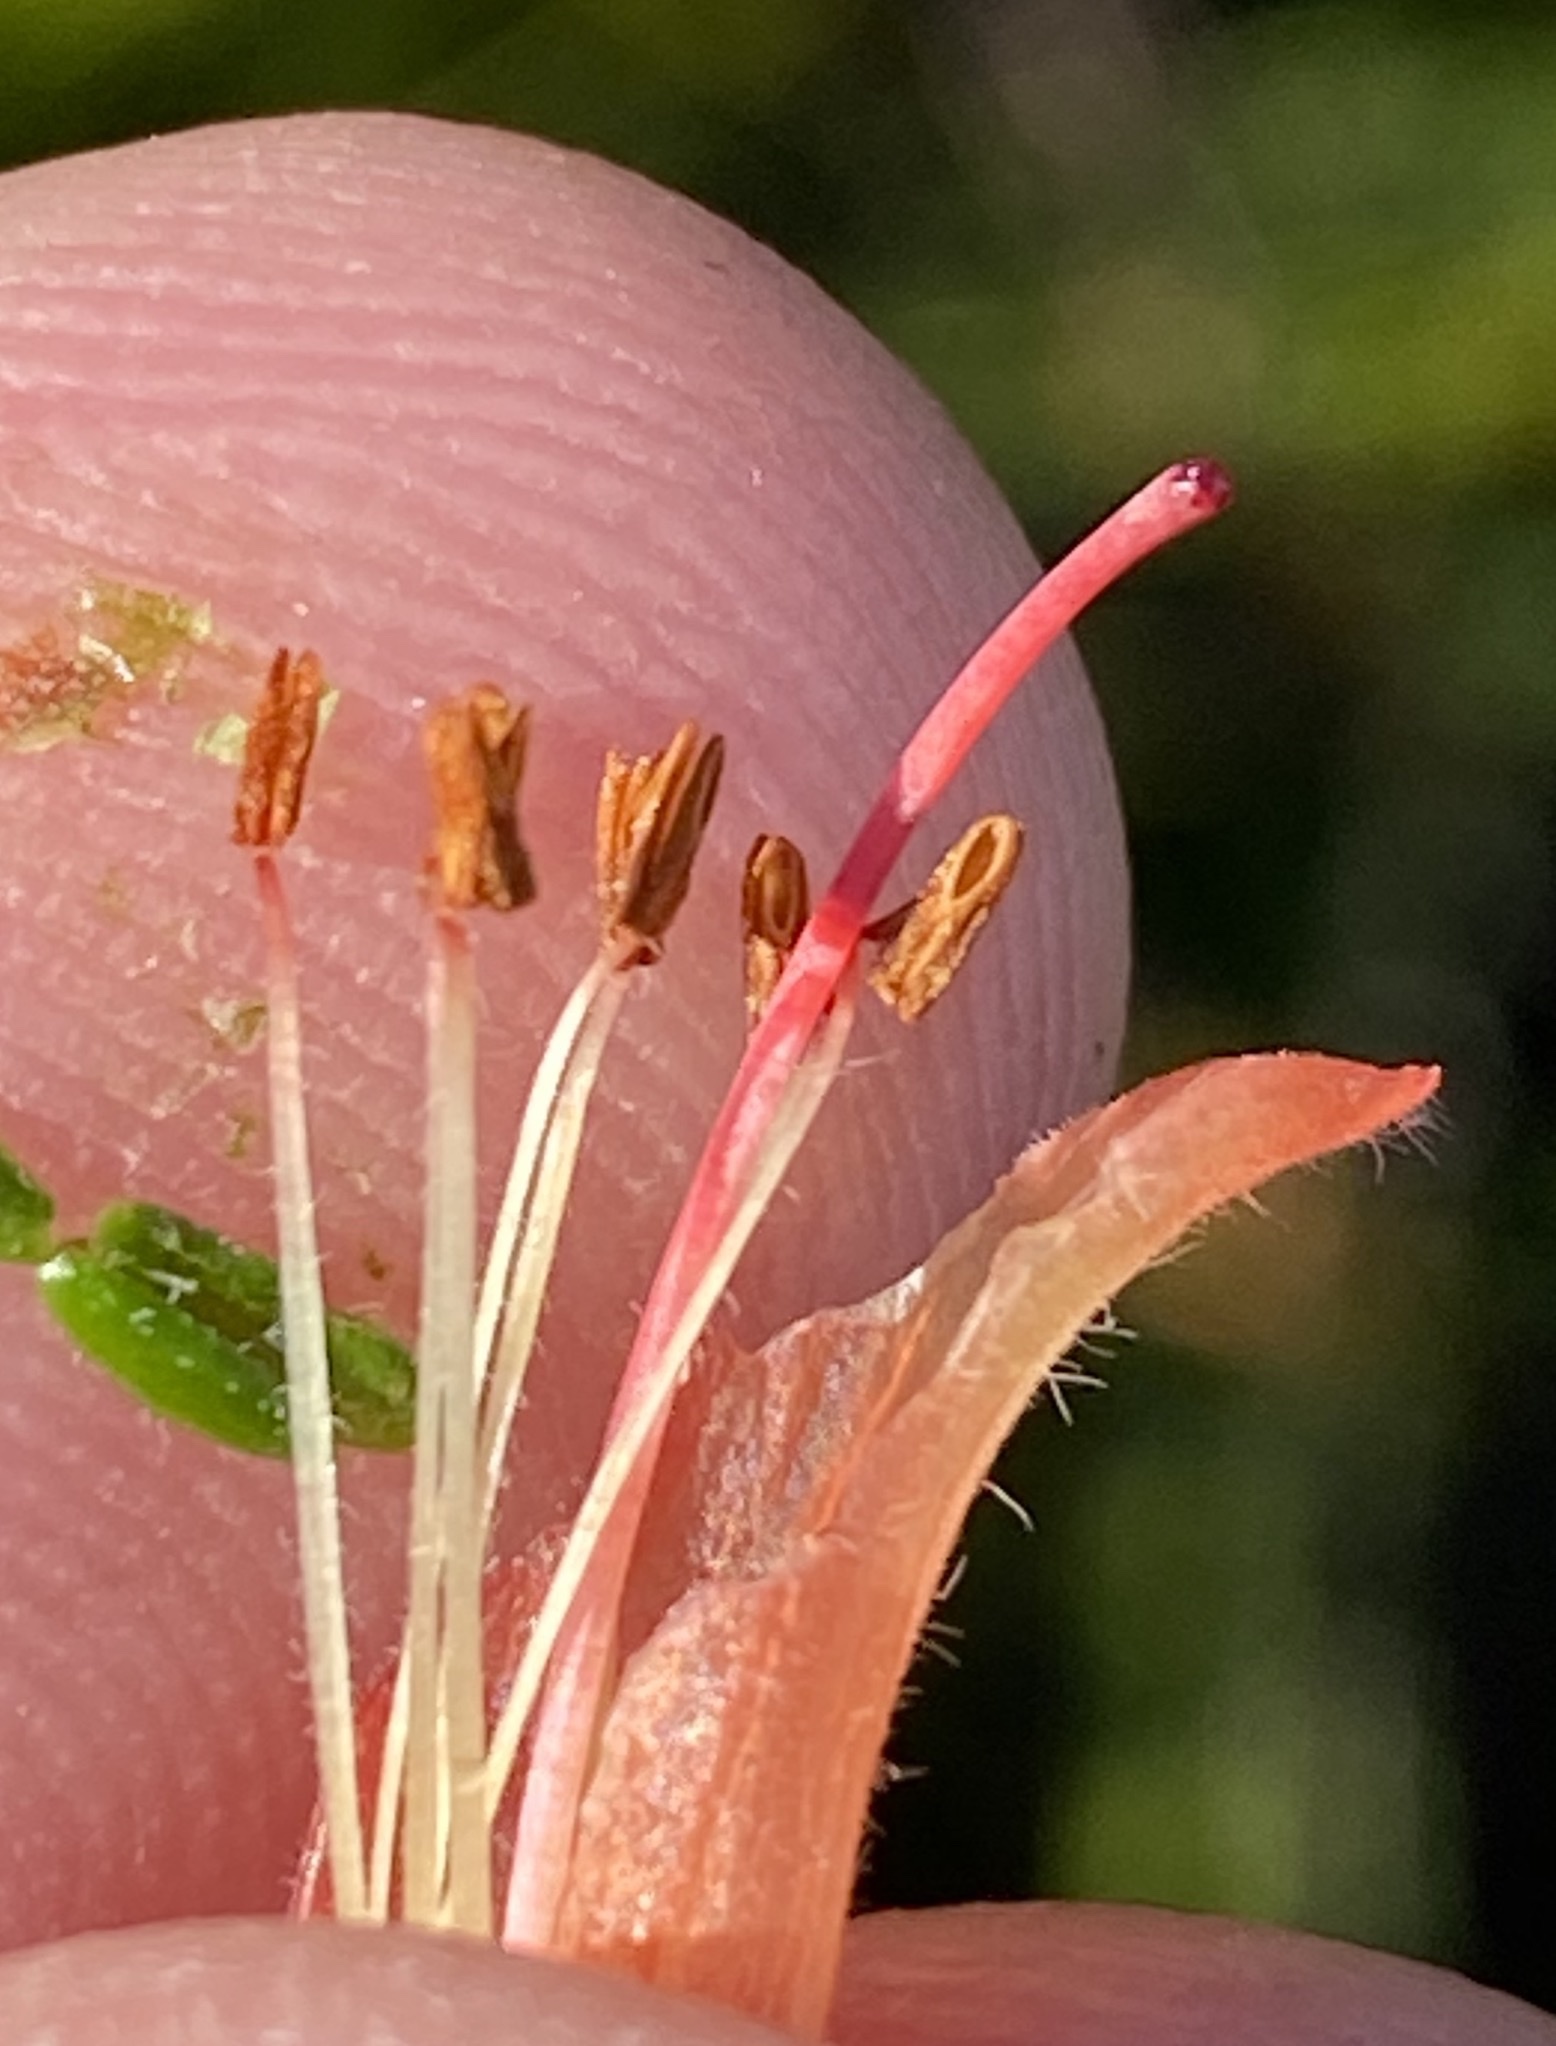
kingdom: Plantae
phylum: Tracheophyta
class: Magnoliopsida
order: Ericales
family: Ericaceae
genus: Erica
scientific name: Erica glandulosa
